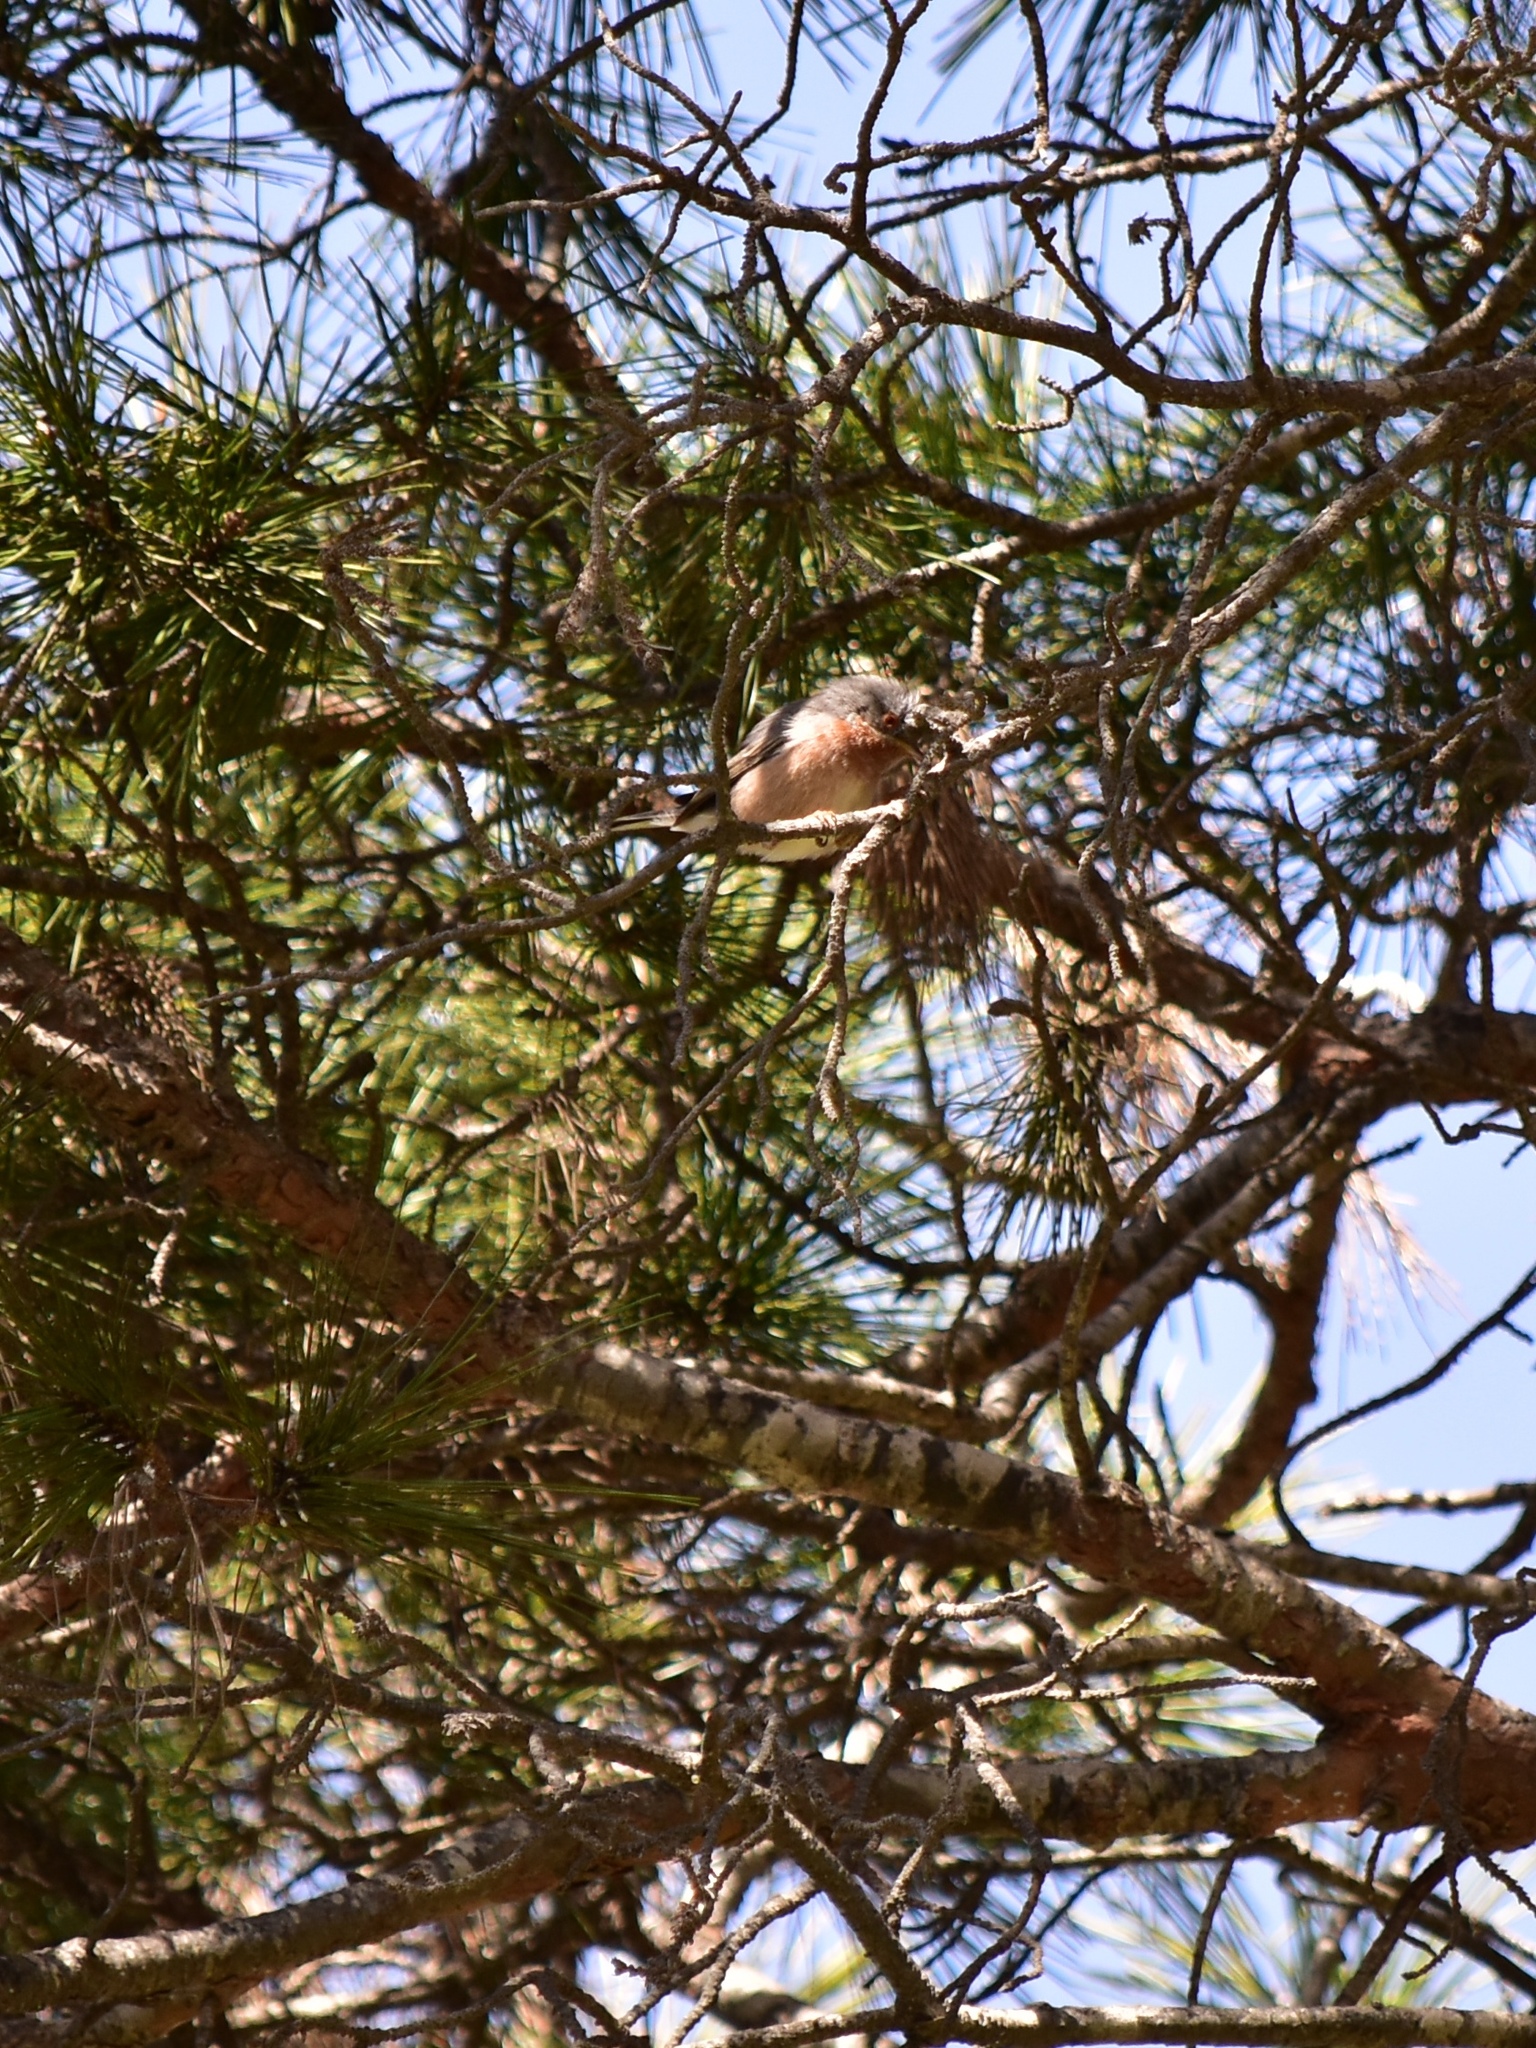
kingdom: Animalia
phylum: Chordata
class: Aves
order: Passeriformes
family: Sylviidae
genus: Curruca
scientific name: Curruca iberiae
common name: Western subalpine warbler
